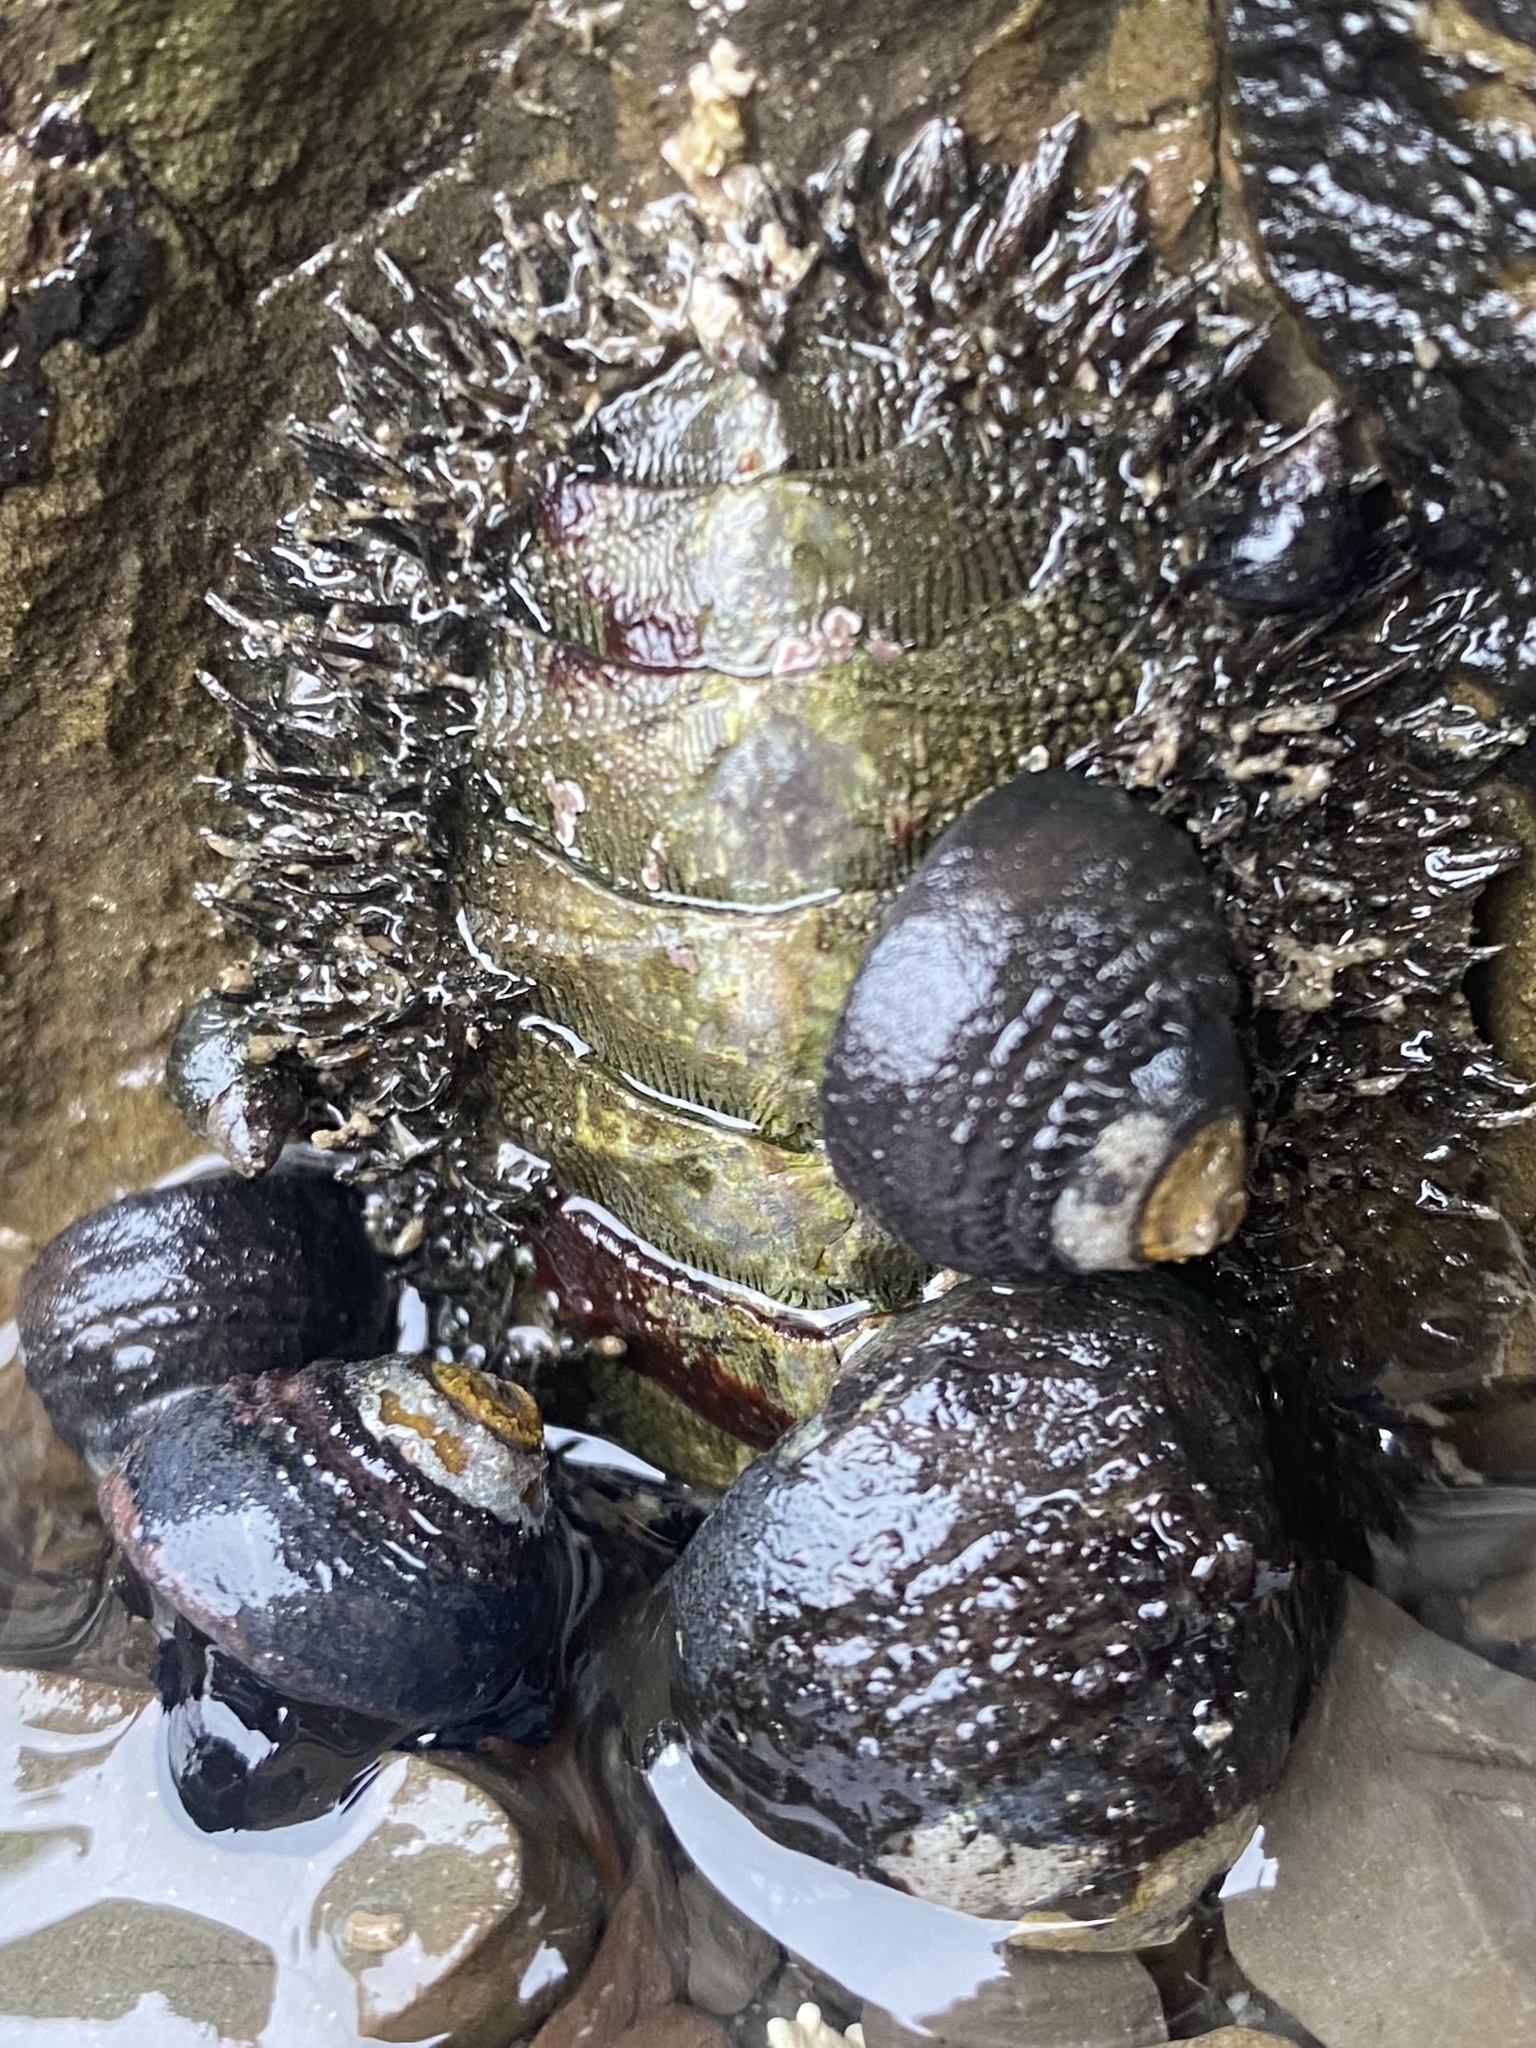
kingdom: Animalia
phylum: Mollusca
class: Polyplacophora
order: Chitonida
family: Mopaliidae
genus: Mopalia
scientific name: Mopalia muscosa
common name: Mossy chiton
